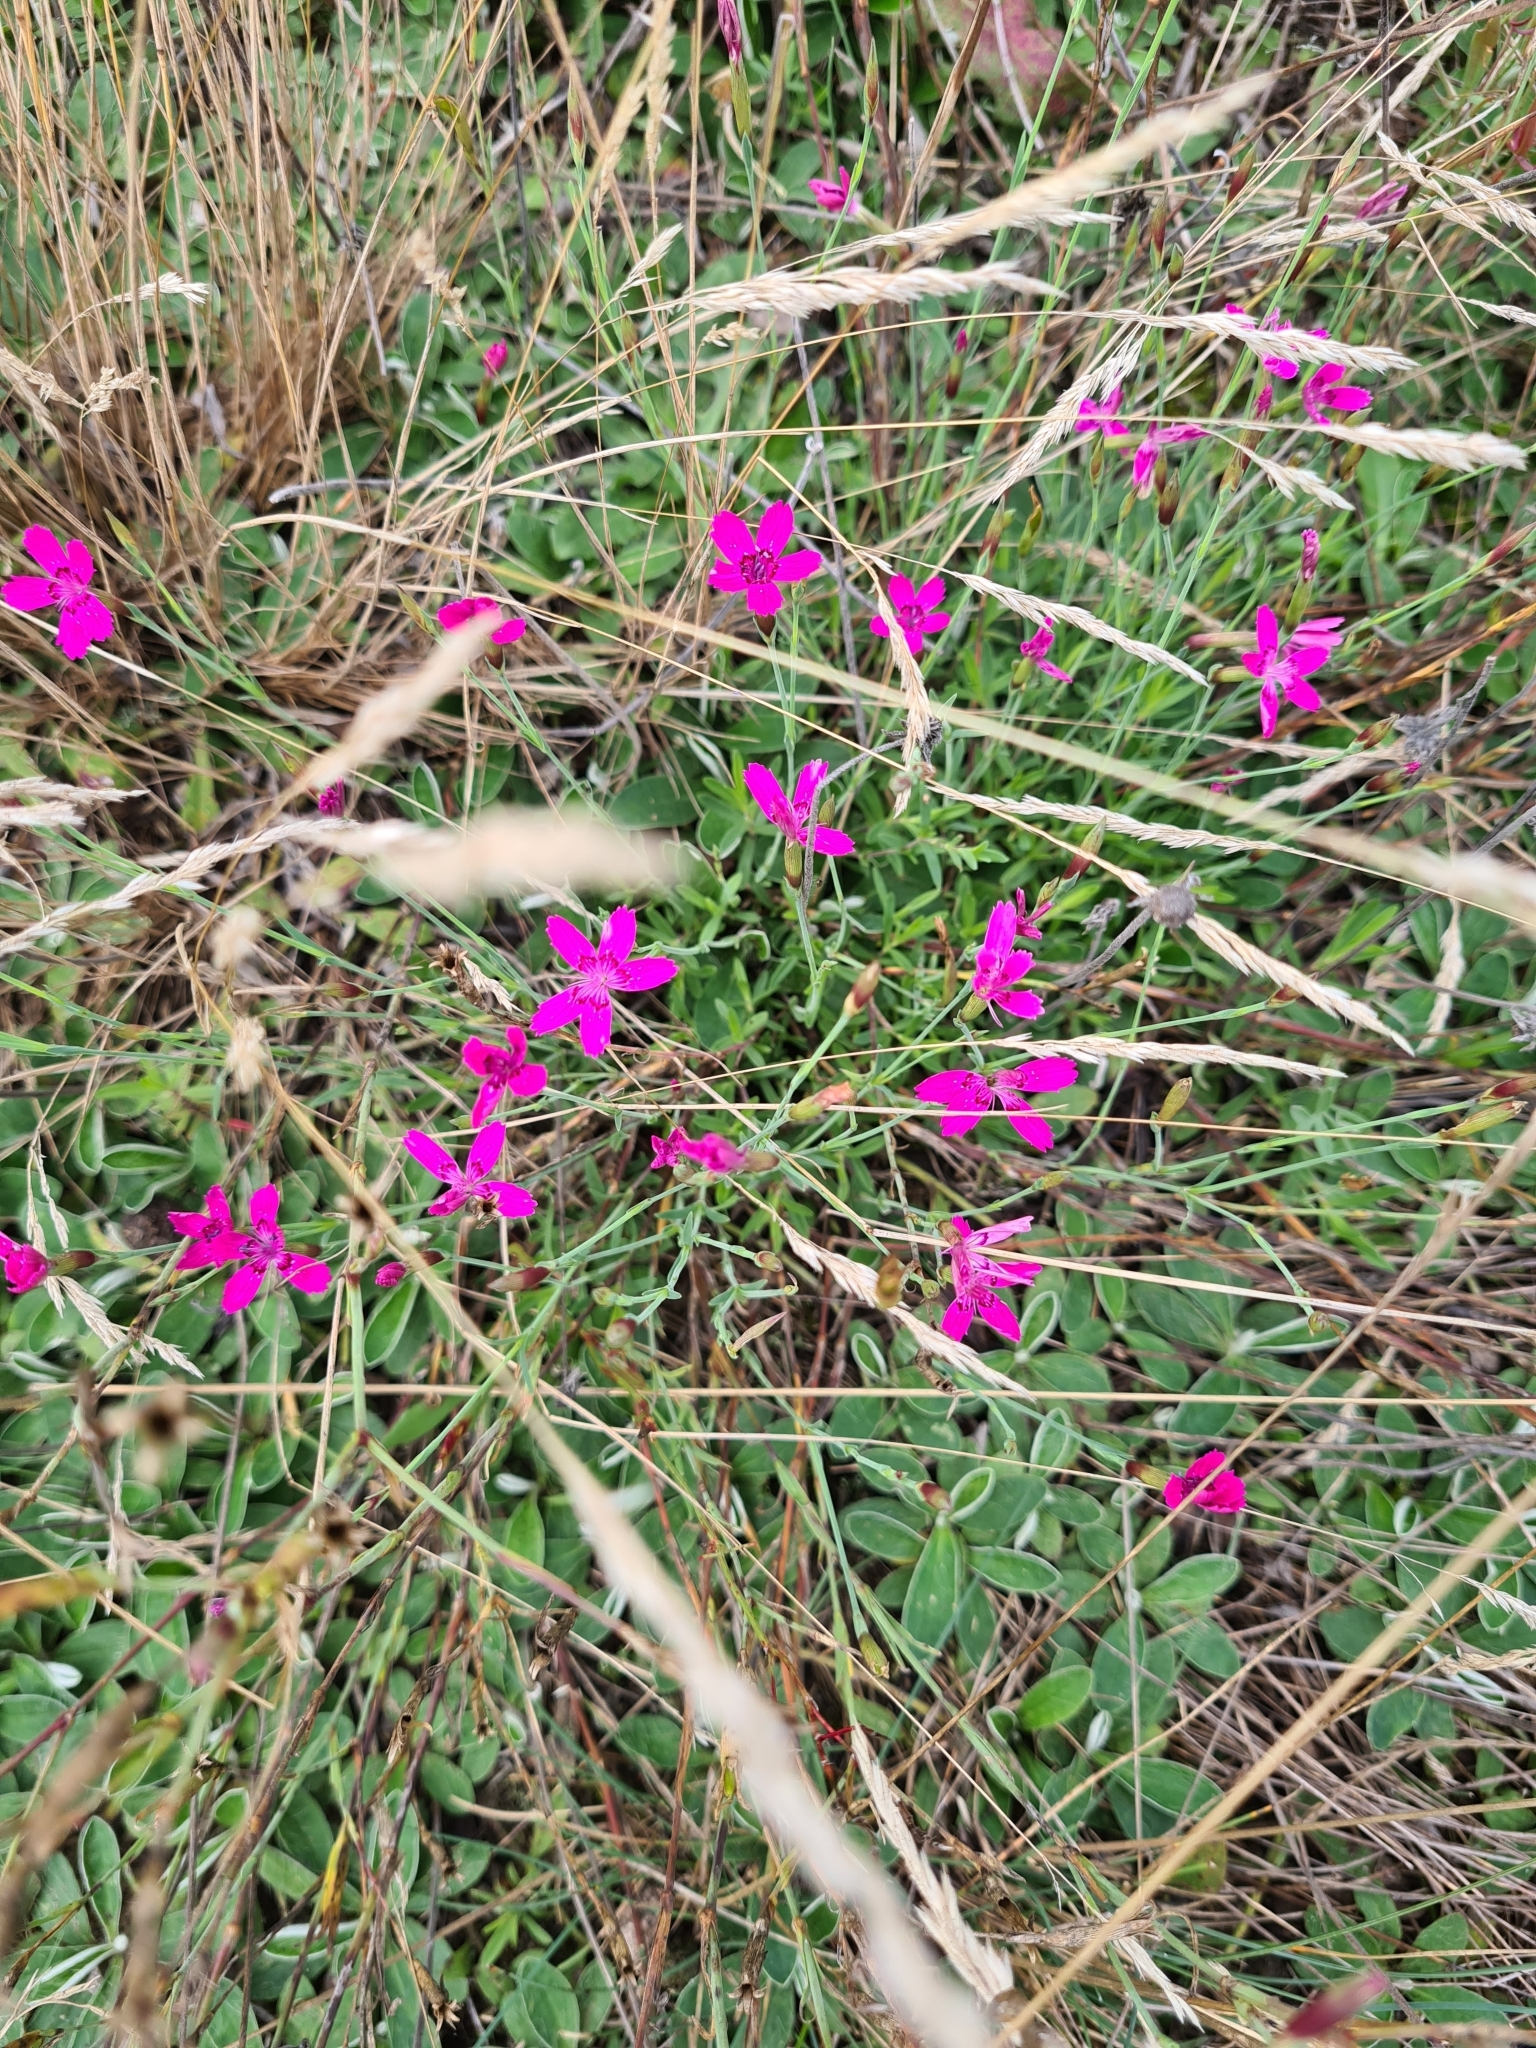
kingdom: Plantae
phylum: Tracheophyta
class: Magnoliopsida
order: Caryophyllales
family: Caryophyllaceae
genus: Dianthus
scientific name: Dianthus deltoides
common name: Maiden pink
